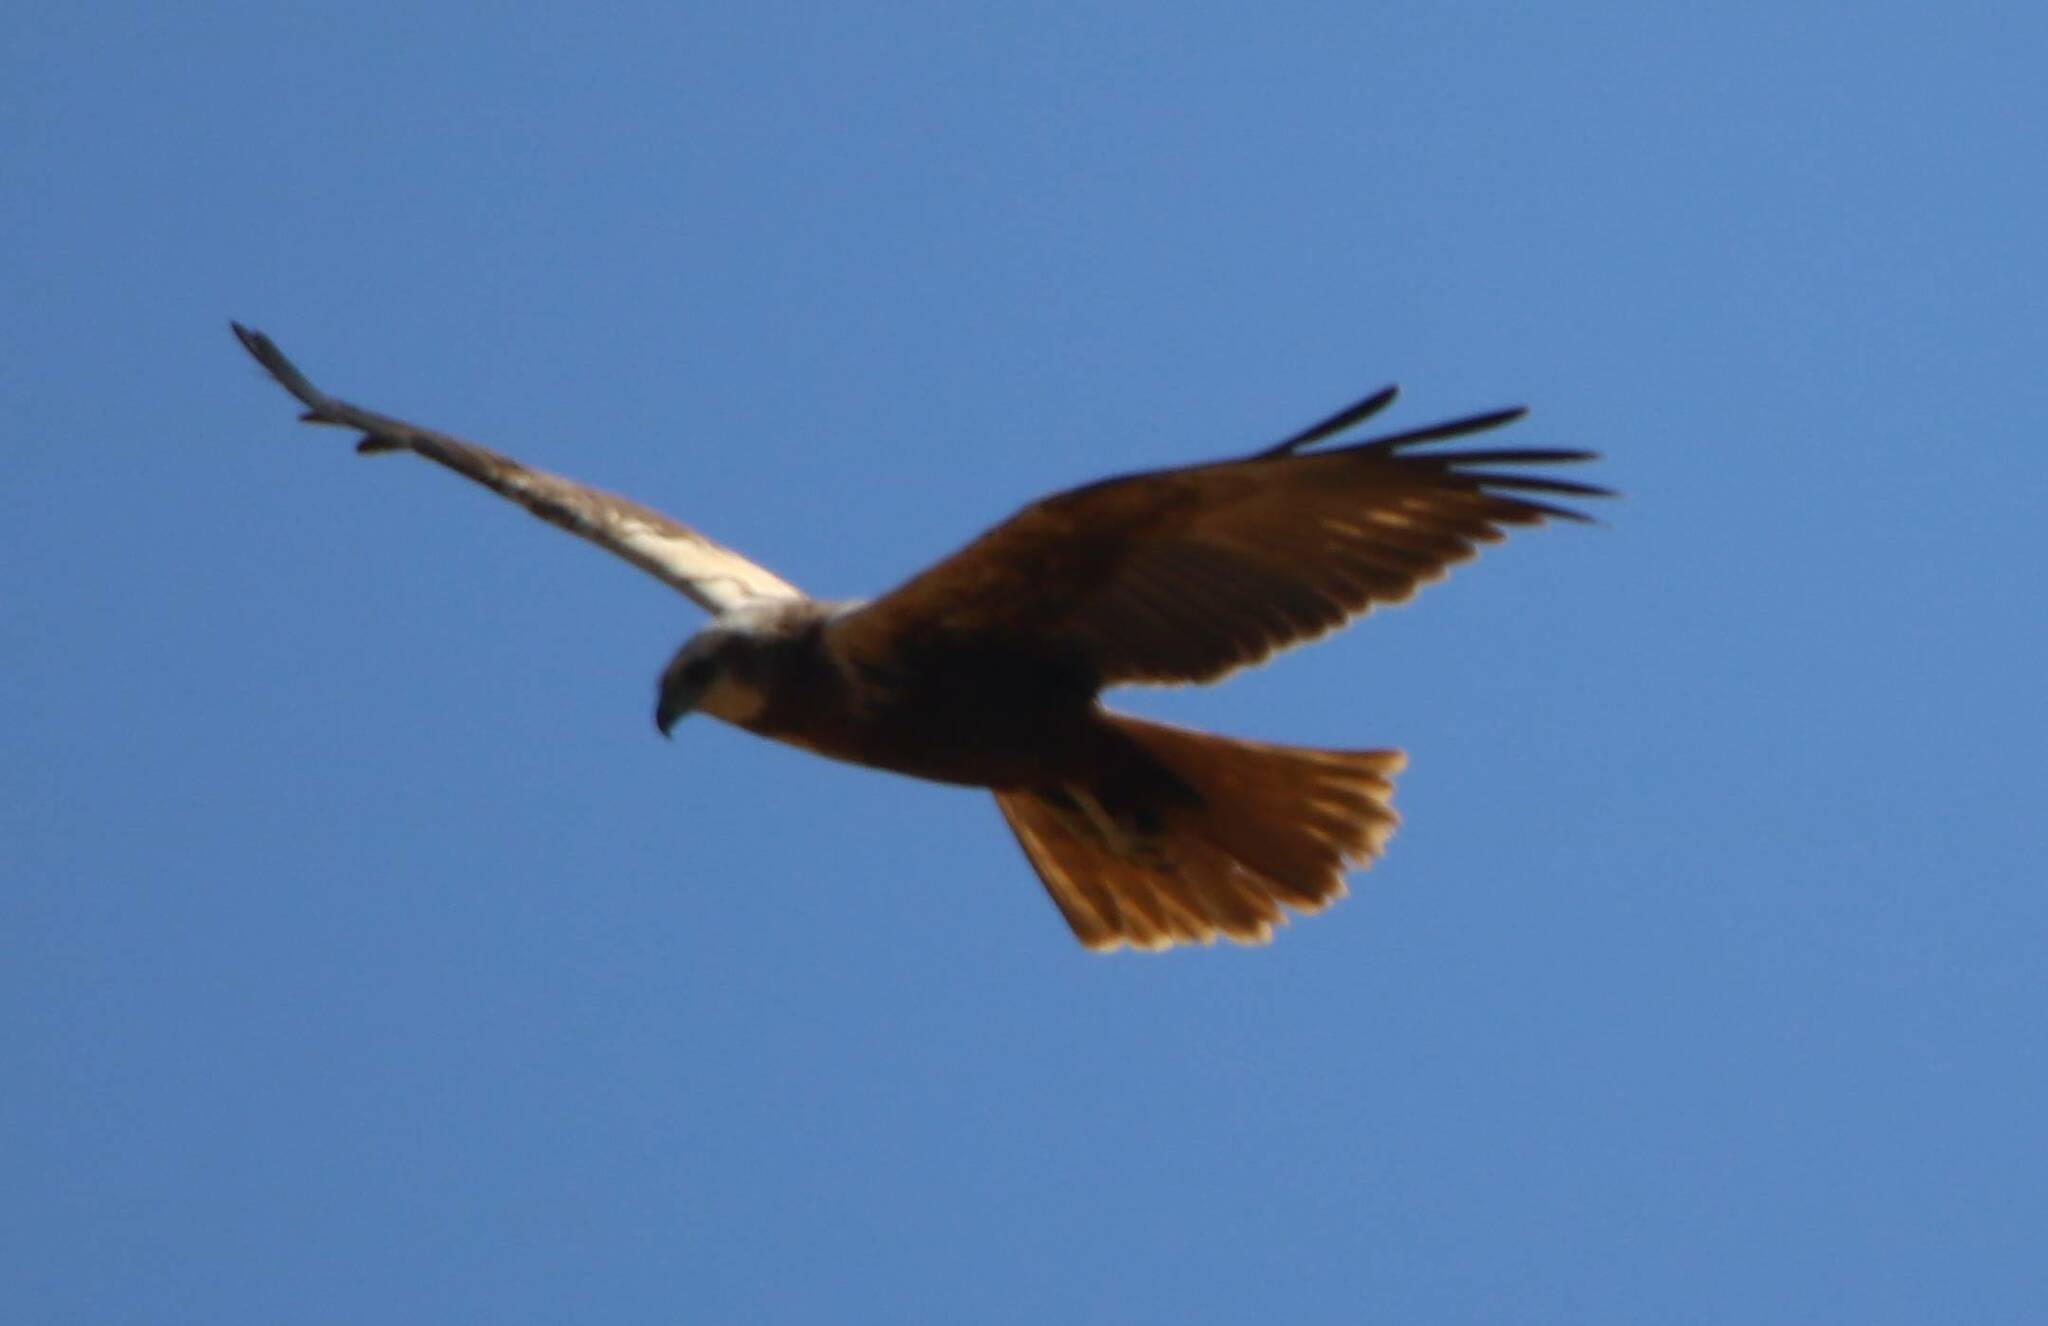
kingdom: Animalia
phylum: Chordata
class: Aves
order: Accipitriformes
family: Accipitridae
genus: Circus
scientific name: Circus aeruginosus
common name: Western marsh harrier
